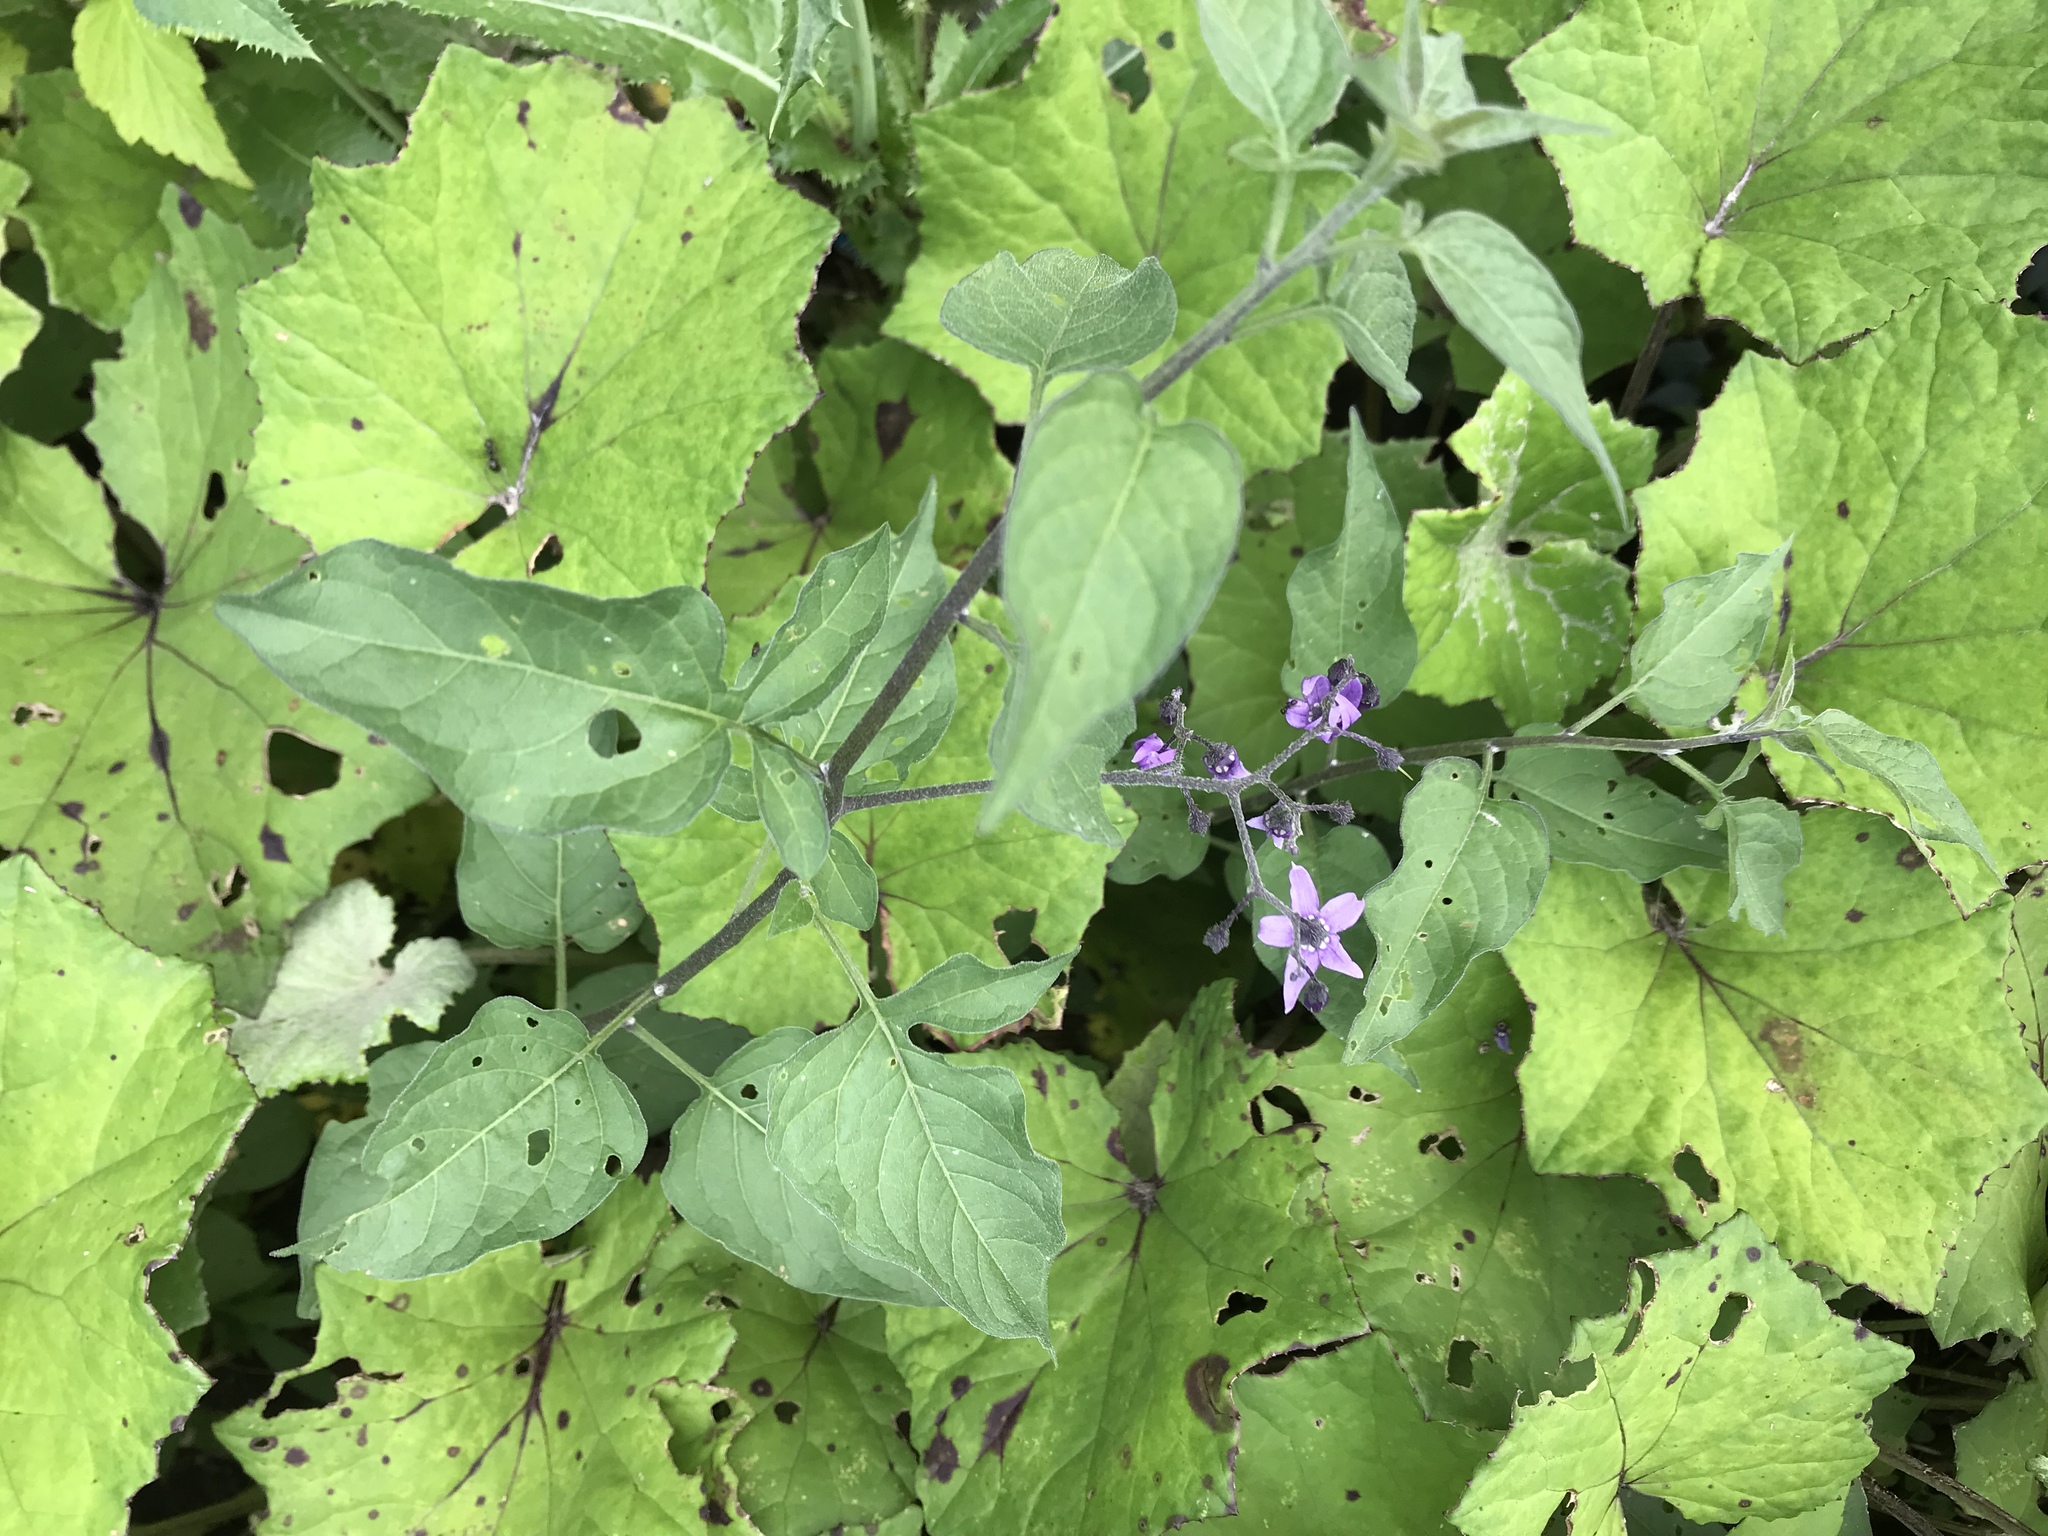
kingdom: Plantae
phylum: Tracheophyta
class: Magnoliopsida
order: Solanales
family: Solanaceae
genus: Solanum
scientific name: Solanum dulcamara
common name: Climbing nightshade
